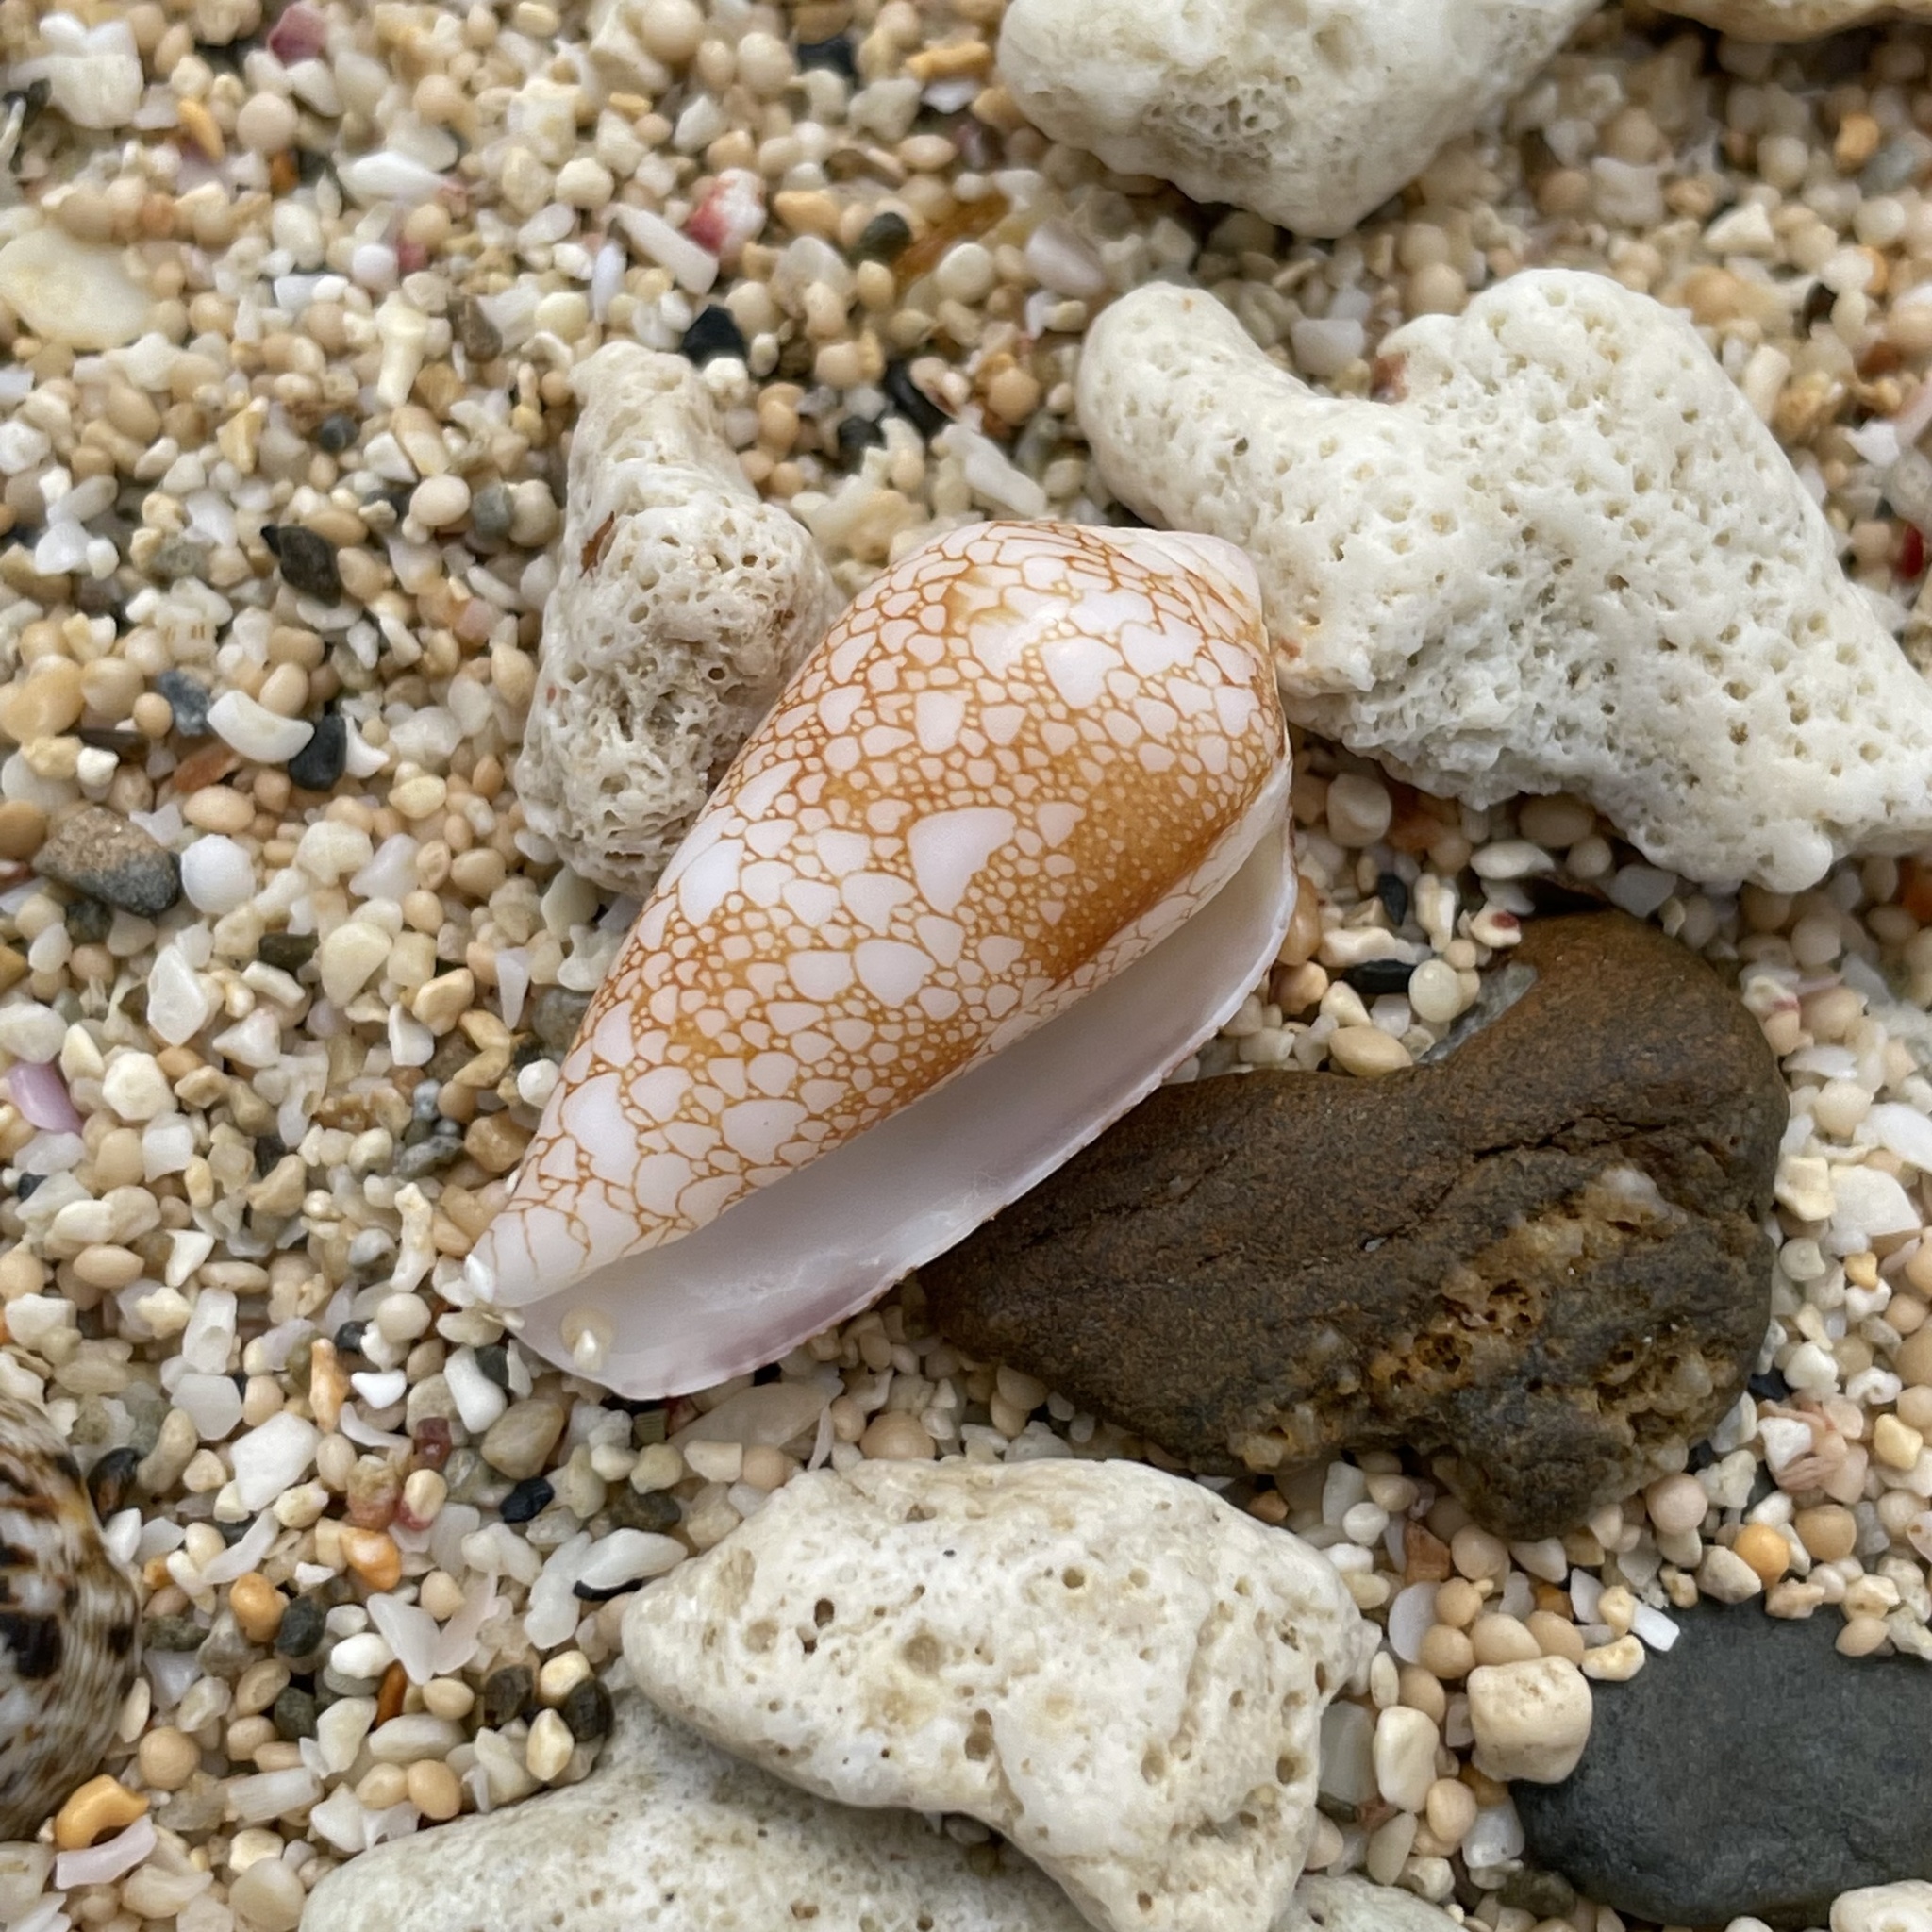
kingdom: Animalia
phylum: Mollusca
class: Gastropoda
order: Neogastropoda
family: Conidae
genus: Conus
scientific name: Conus omaria
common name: Omaria cone
